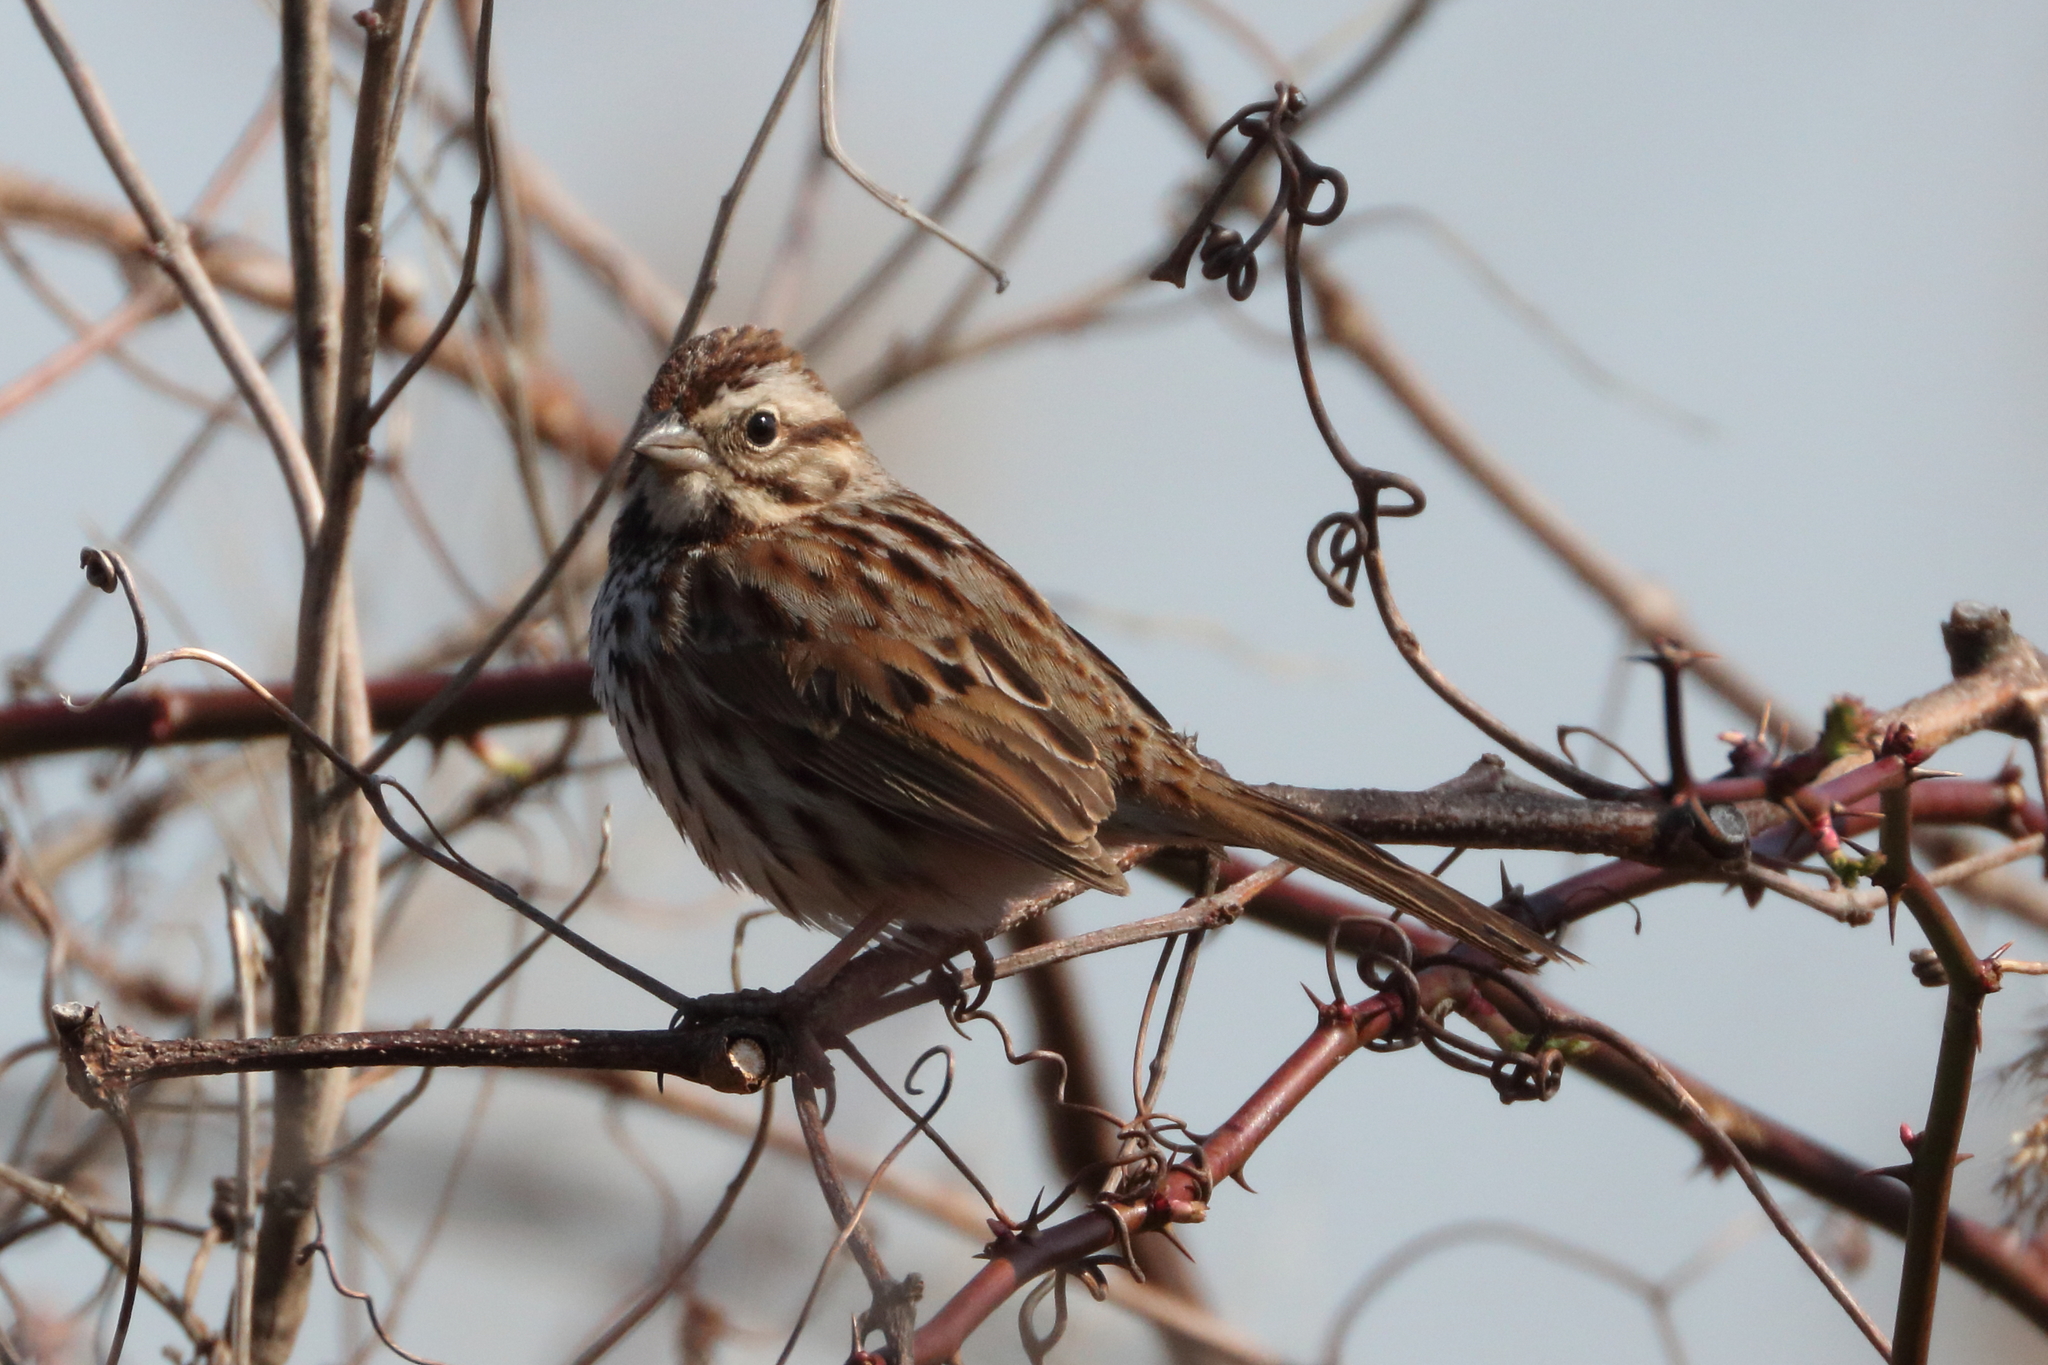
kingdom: Animalia
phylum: Chordata
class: Aves
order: Passeriformes
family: Passerellidae
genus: Melospiza
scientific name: Melospiza melodia
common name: Song sparrow
